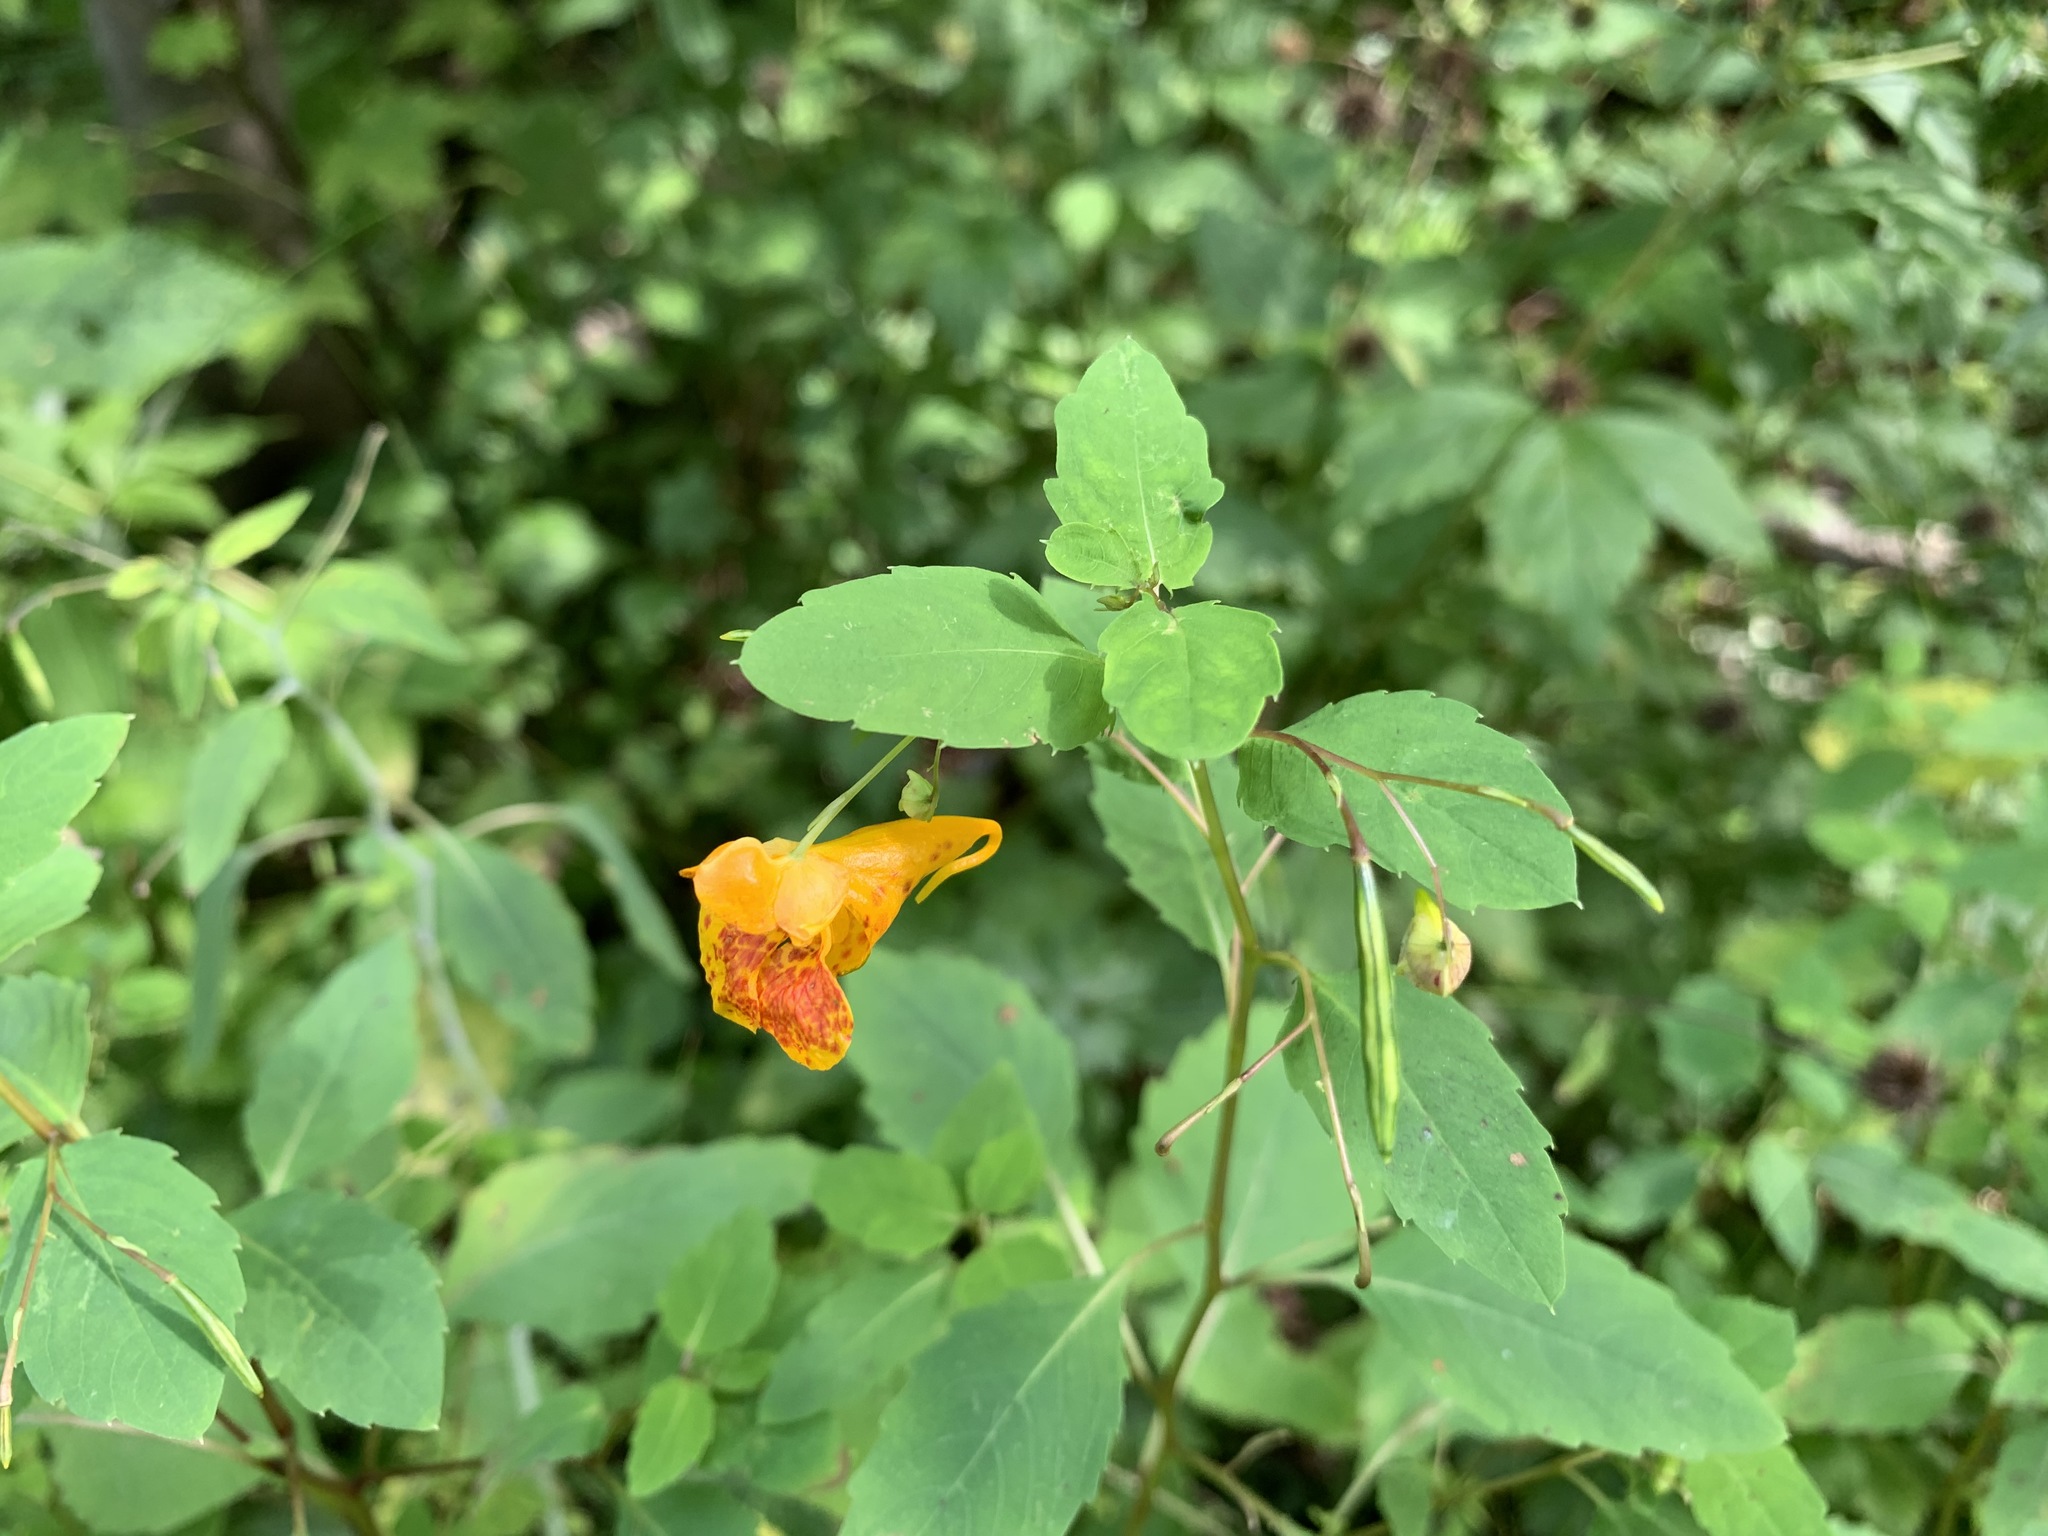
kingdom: Plantae
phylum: Tracheophyta
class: Magnoliopsida
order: Ericales
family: Balsaminaceae
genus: Impatiens
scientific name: Impatiens capensis
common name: Orange balsam
